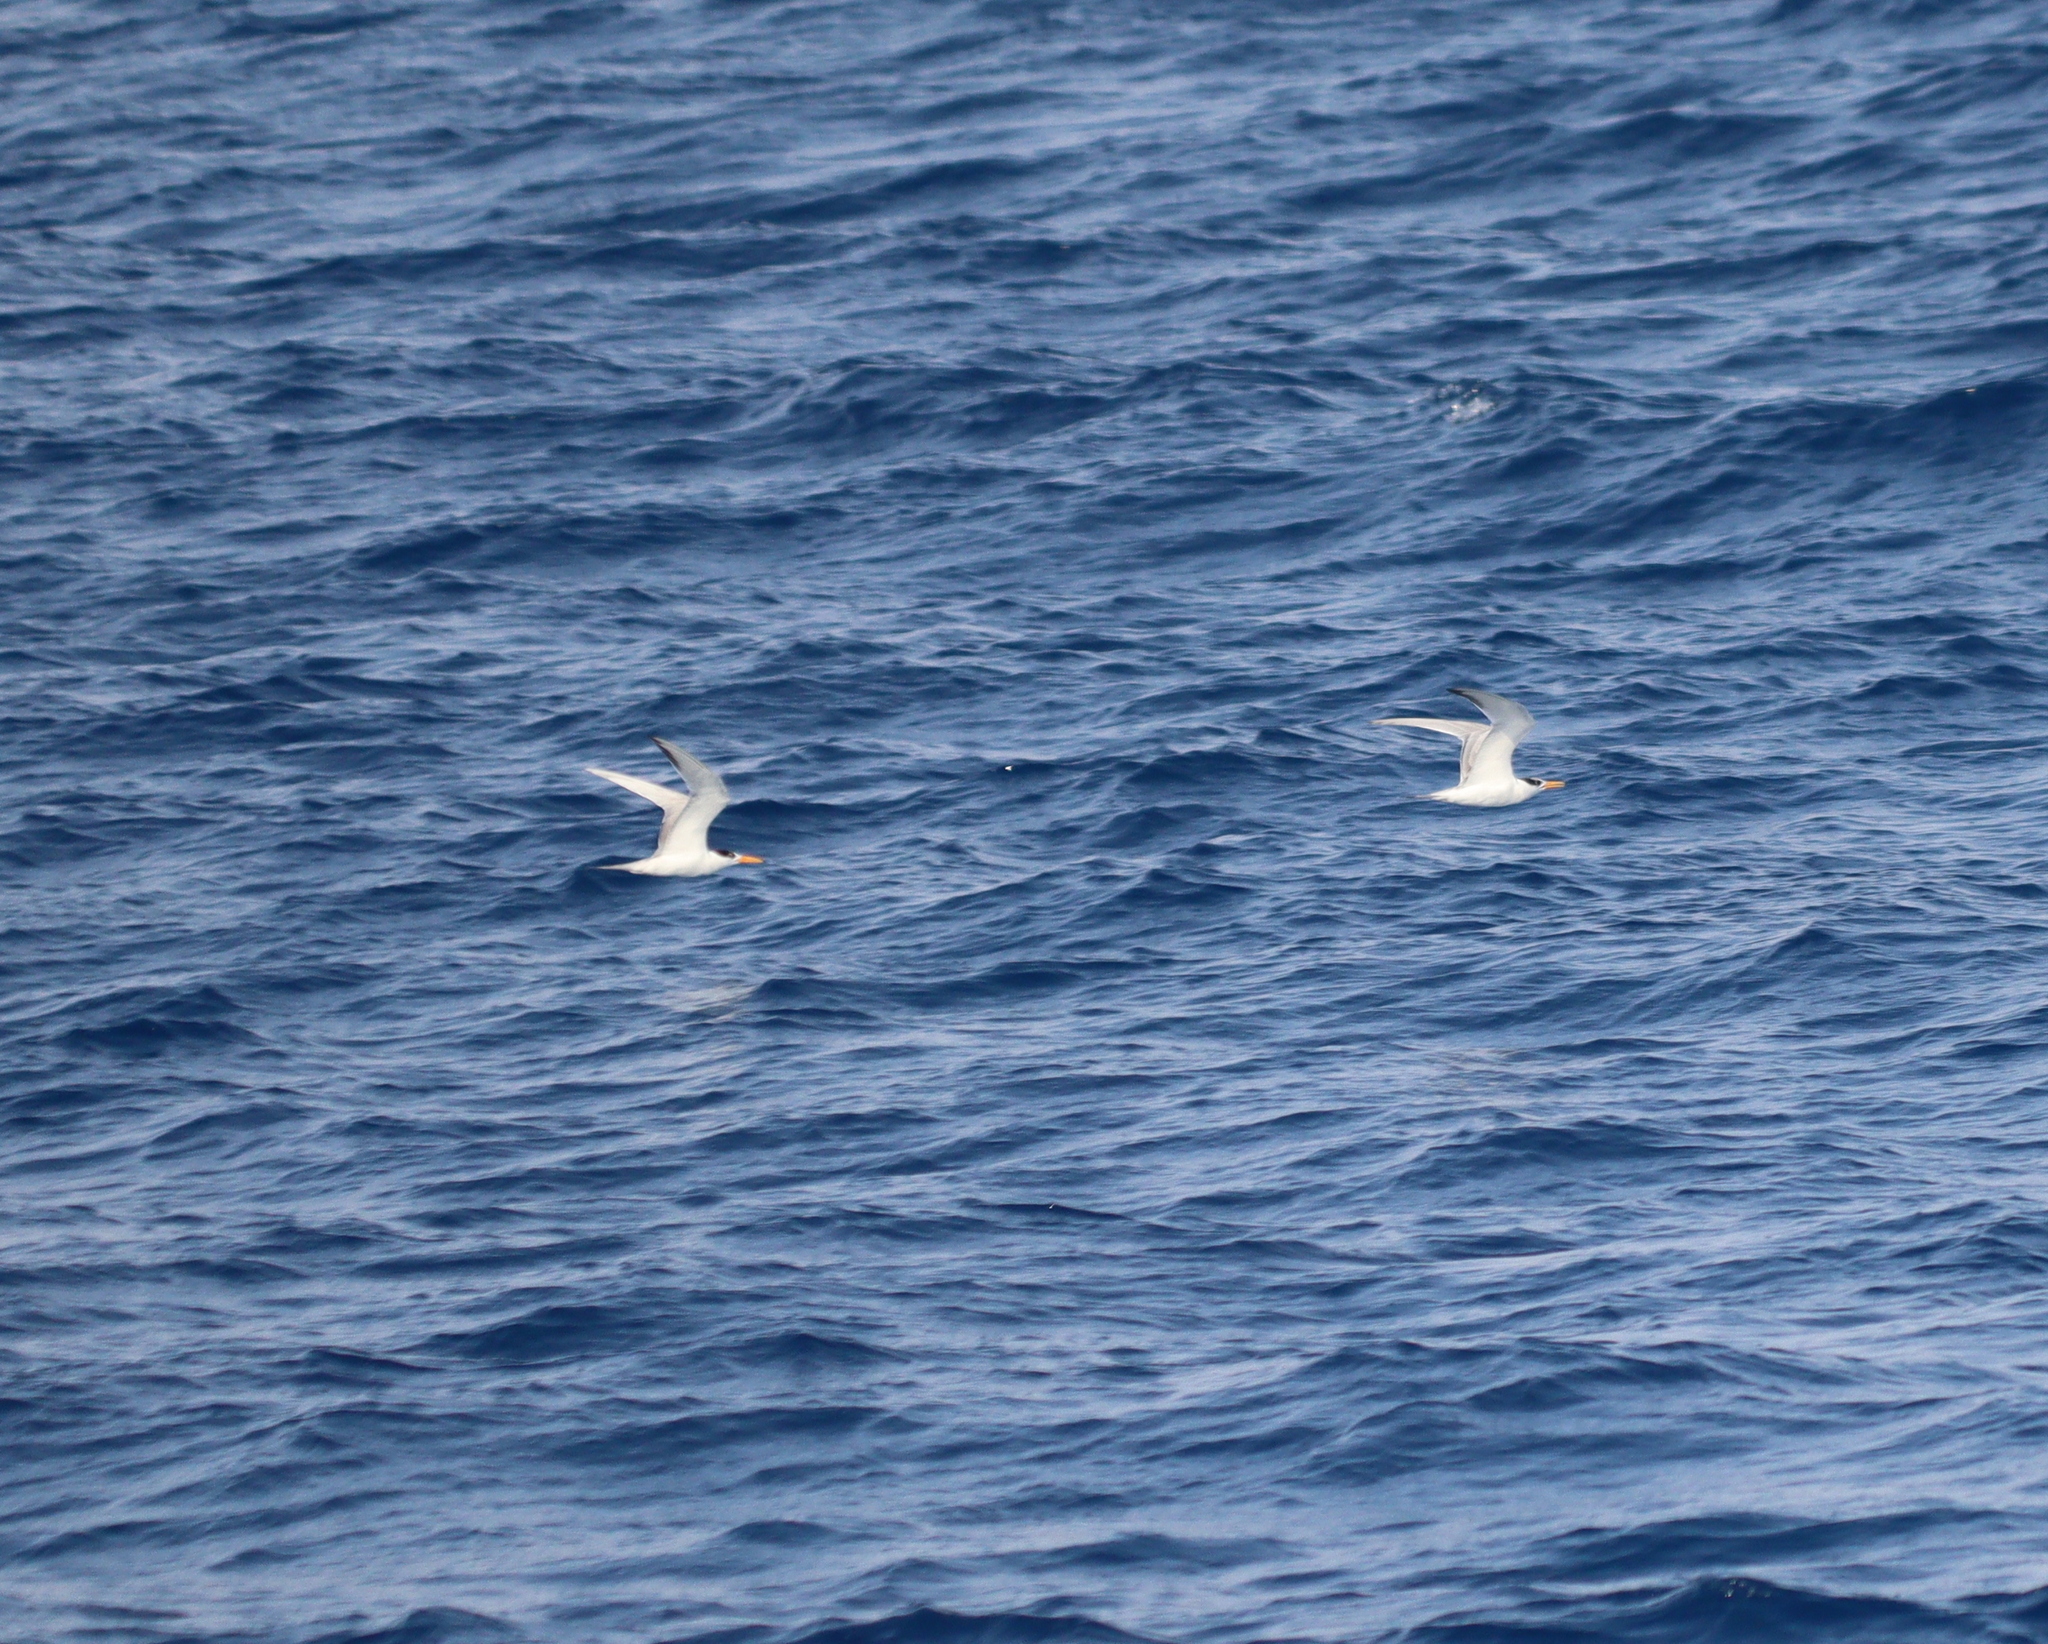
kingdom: Animalia
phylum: Chordata
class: Aves
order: Charadriiformes
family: Laridae
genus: Thalasseus
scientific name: Thalasseus bengalensis
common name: Lesser crested tern
